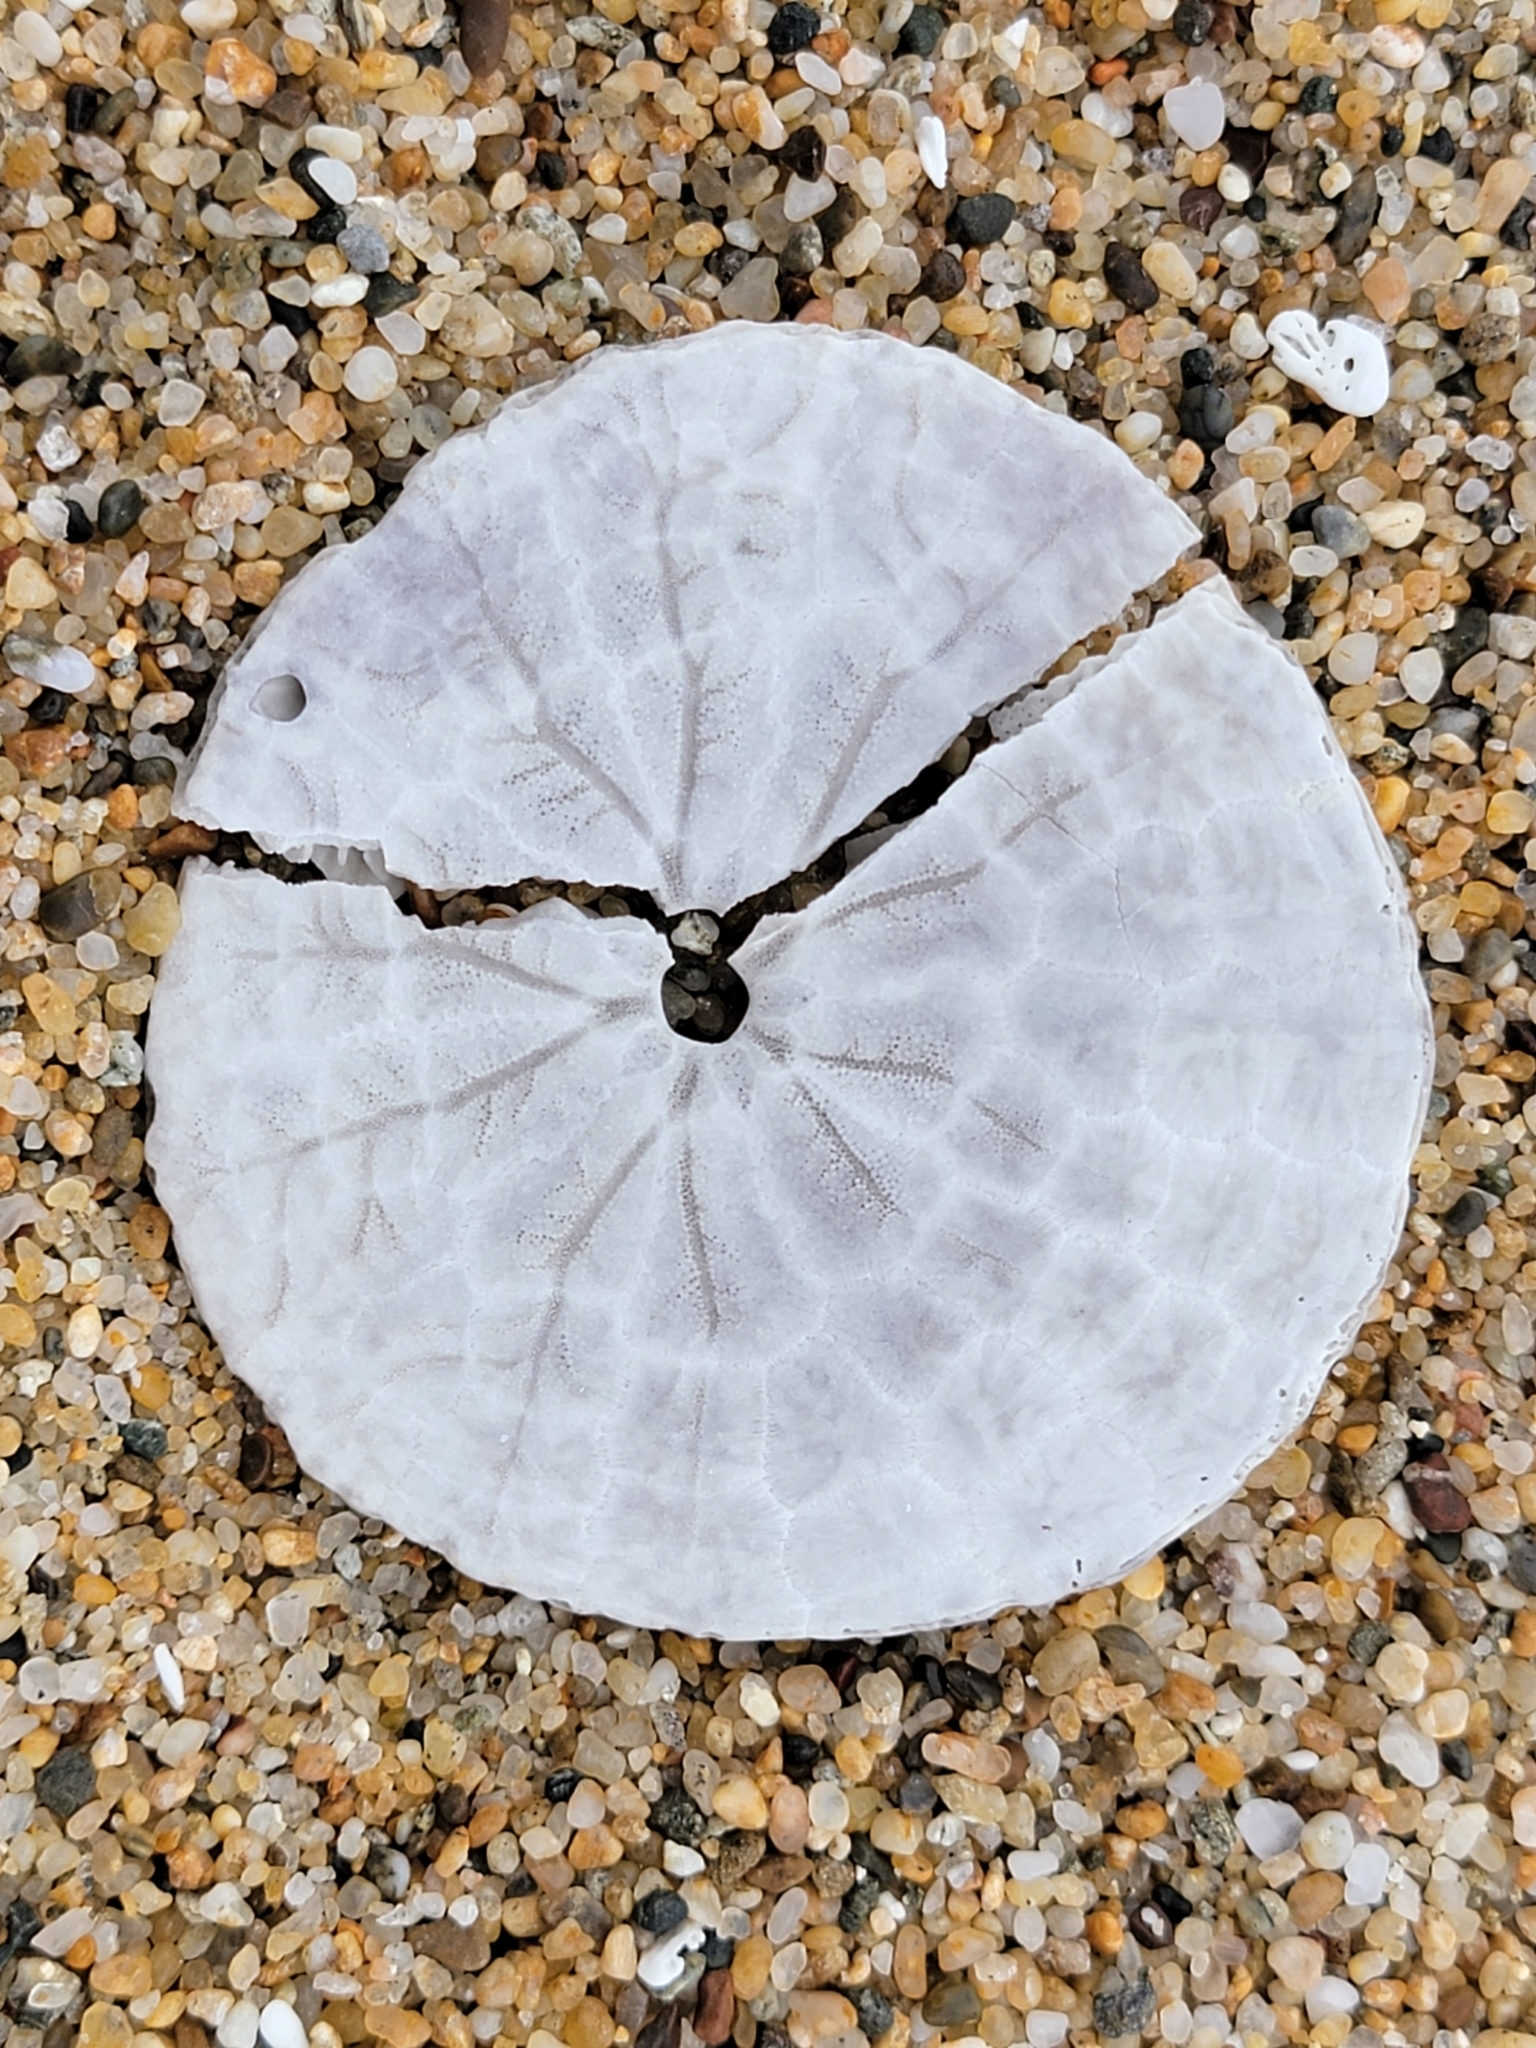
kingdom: Animalia
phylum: Echinodermata
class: Echinoidea
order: Echinolampadacea
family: Dendrasteridae
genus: Dendraster
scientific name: Dendraster excentricus
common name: Eccentric sand dollar sea urchin
